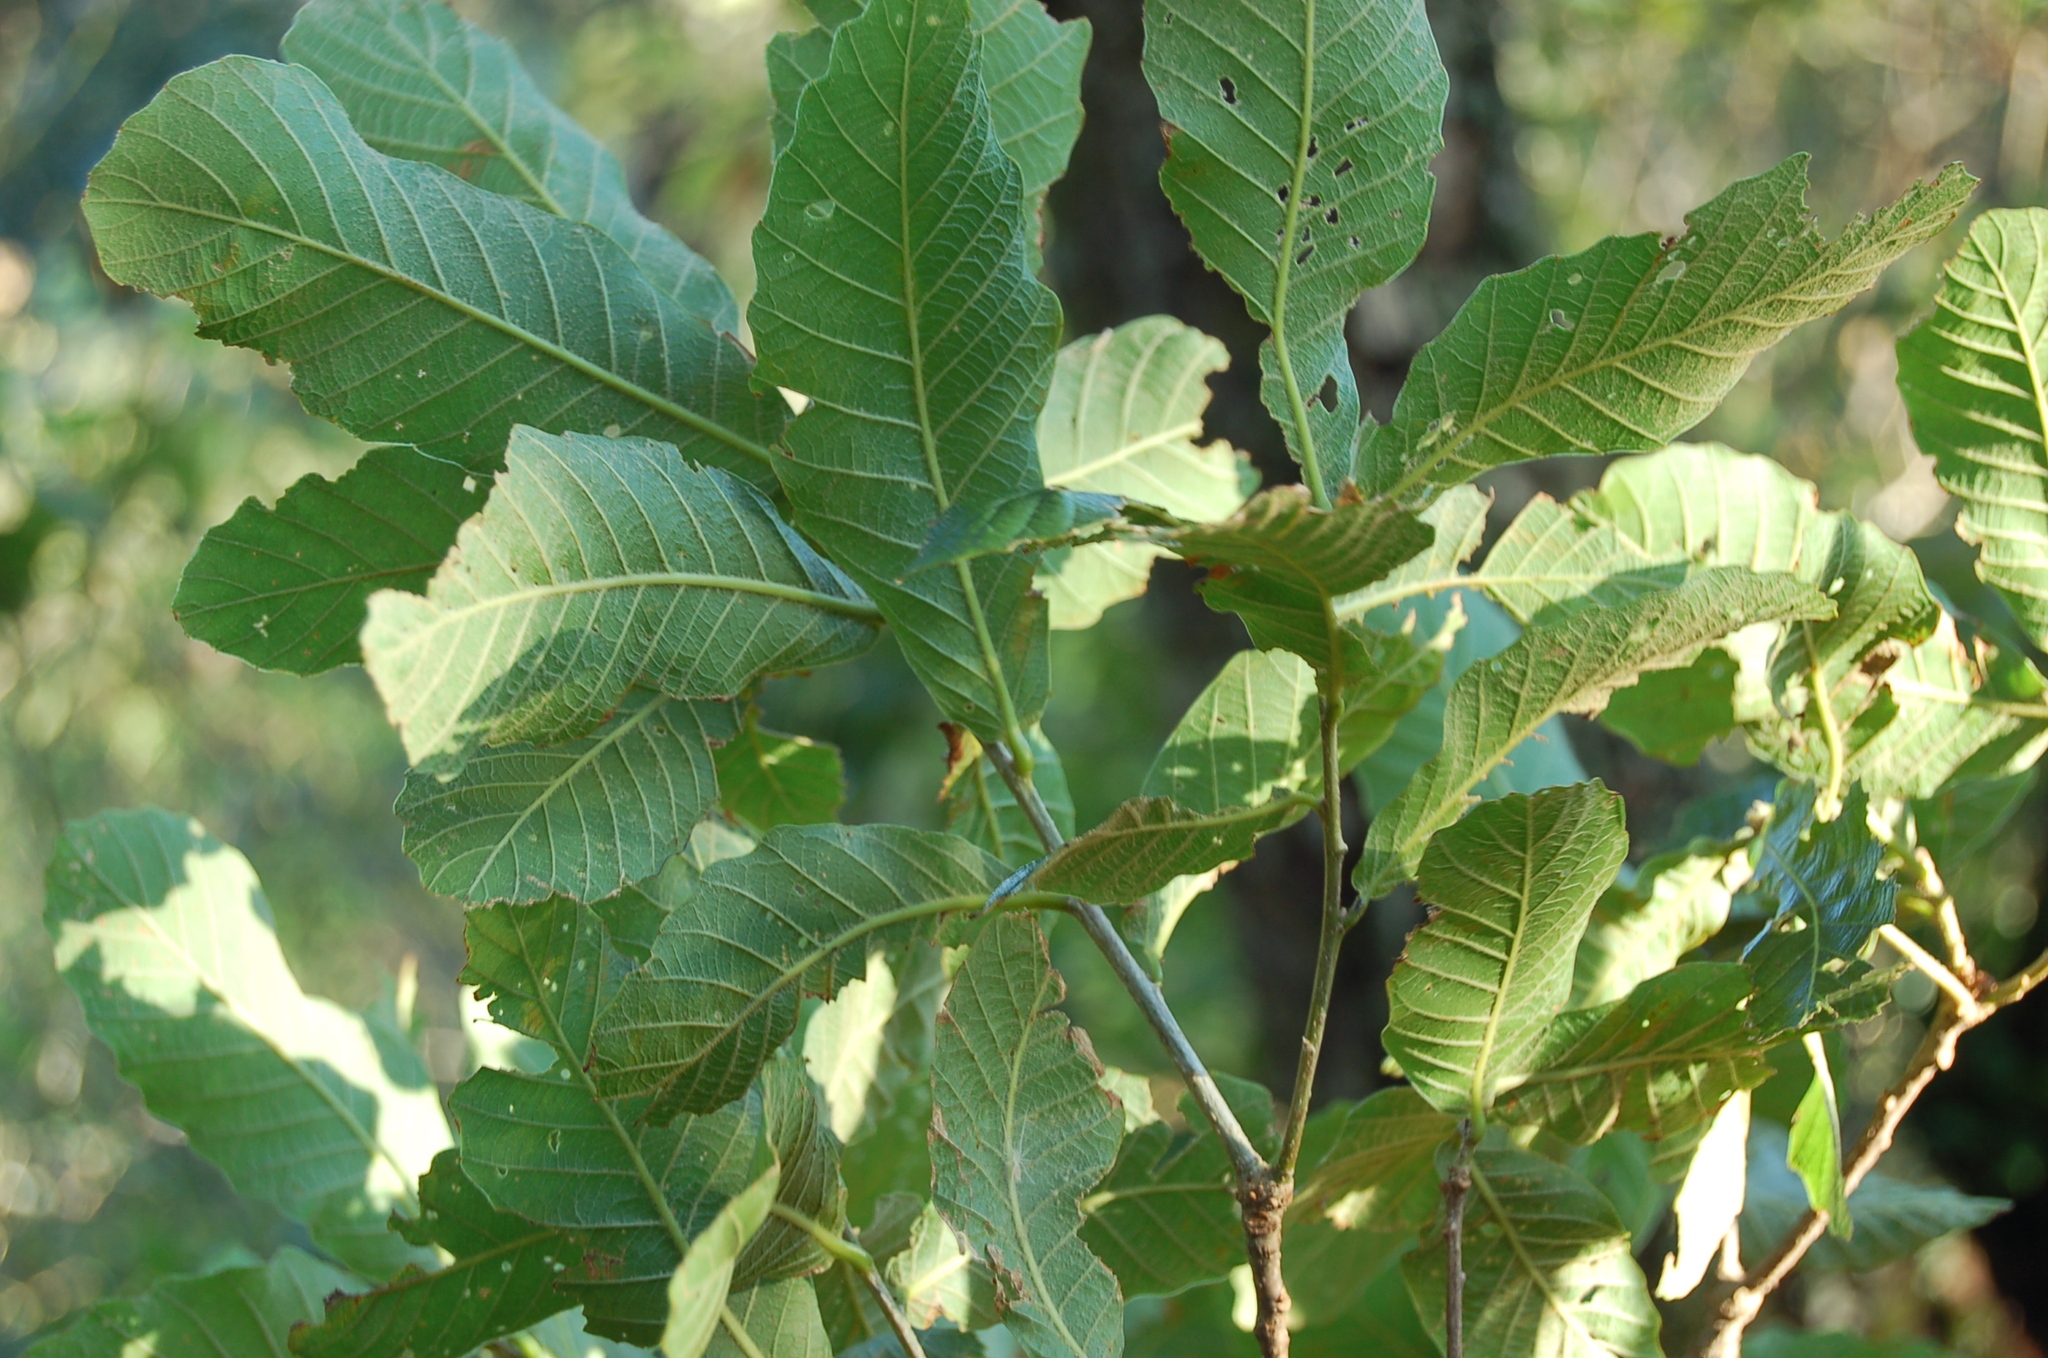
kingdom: Plantae
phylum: Tracheophyta
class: Magnoliopsida
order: Fagales
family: Fagaceae
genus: Quercus
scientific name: Quercus segoviensis
